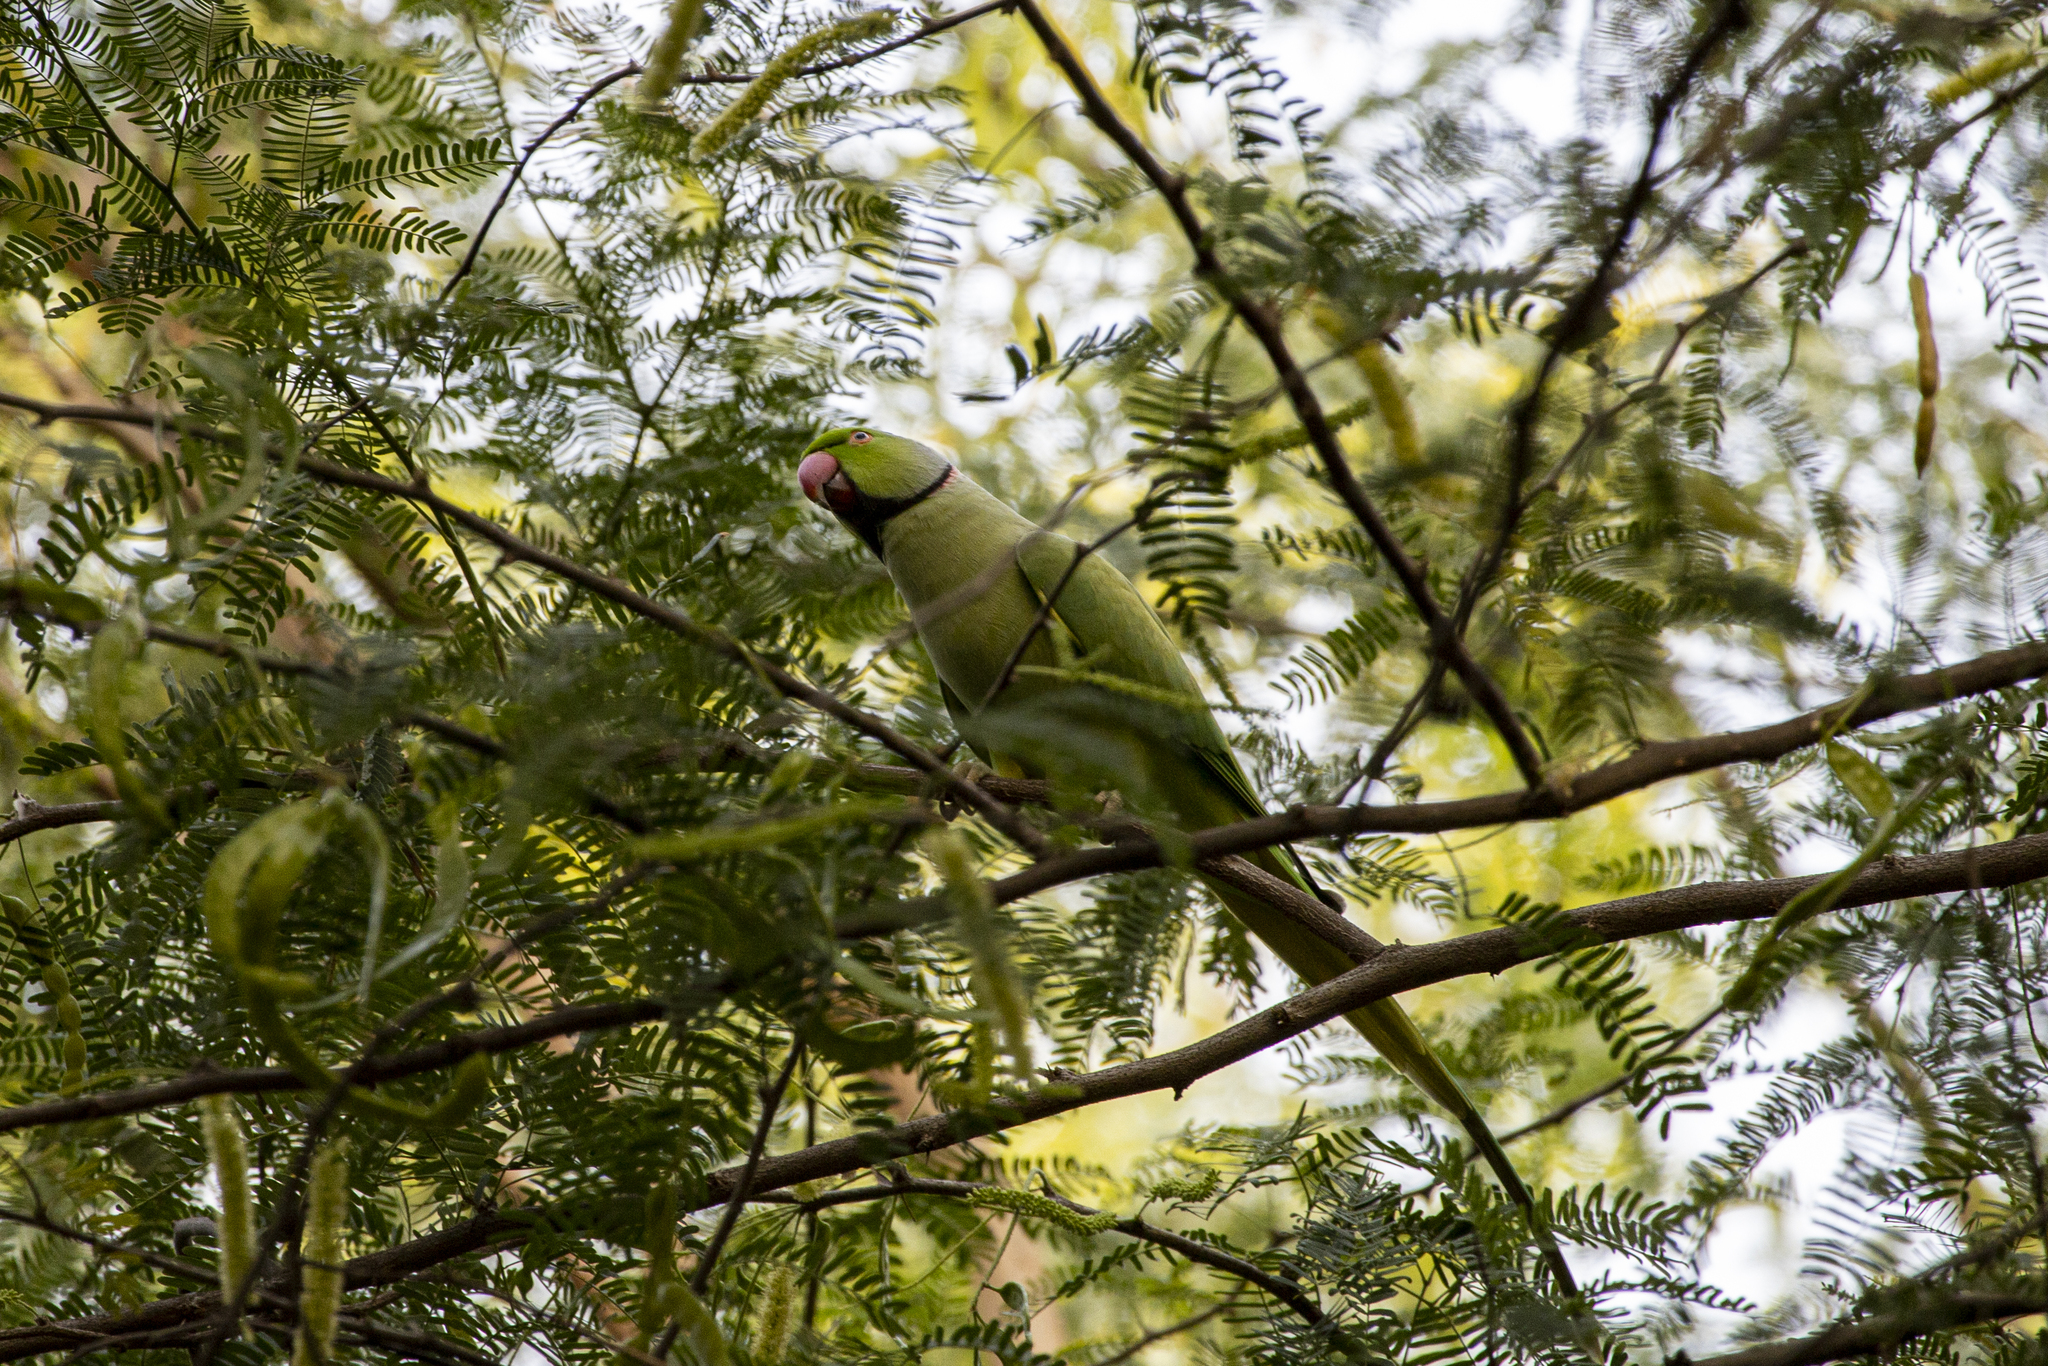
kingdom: Animalia
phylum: Chordata
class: Aves
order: Psittaciformes
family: Psittacidae
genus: Psittacula
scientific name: Psittacula krameri
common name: Rose-ringed parakeet
